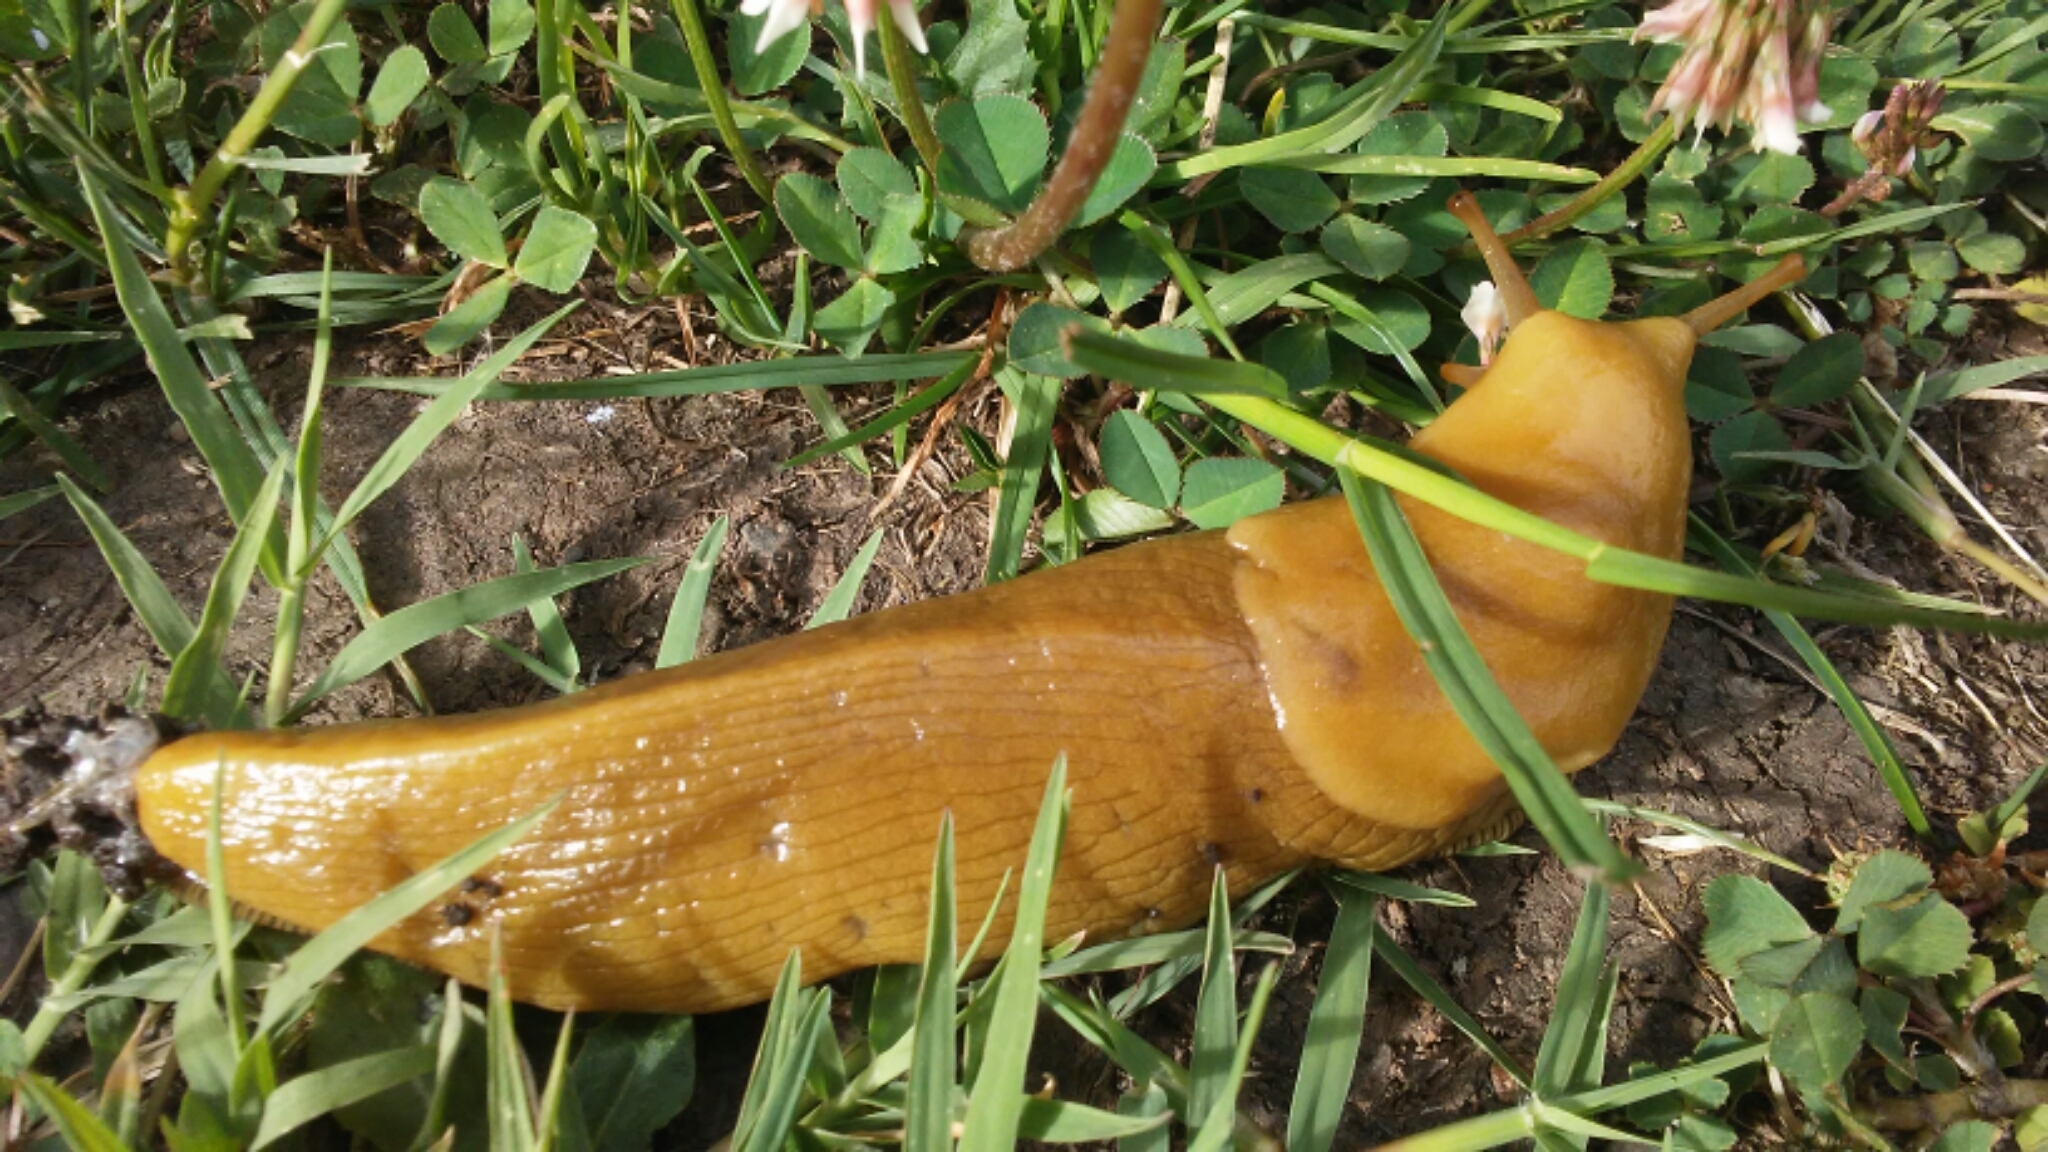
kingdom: Animalia
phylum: Mollusca
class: Gastropoda
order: Stylommatophora
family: Ariolimacidae
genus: Ariolimax
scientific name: Ariolimax buttoni
